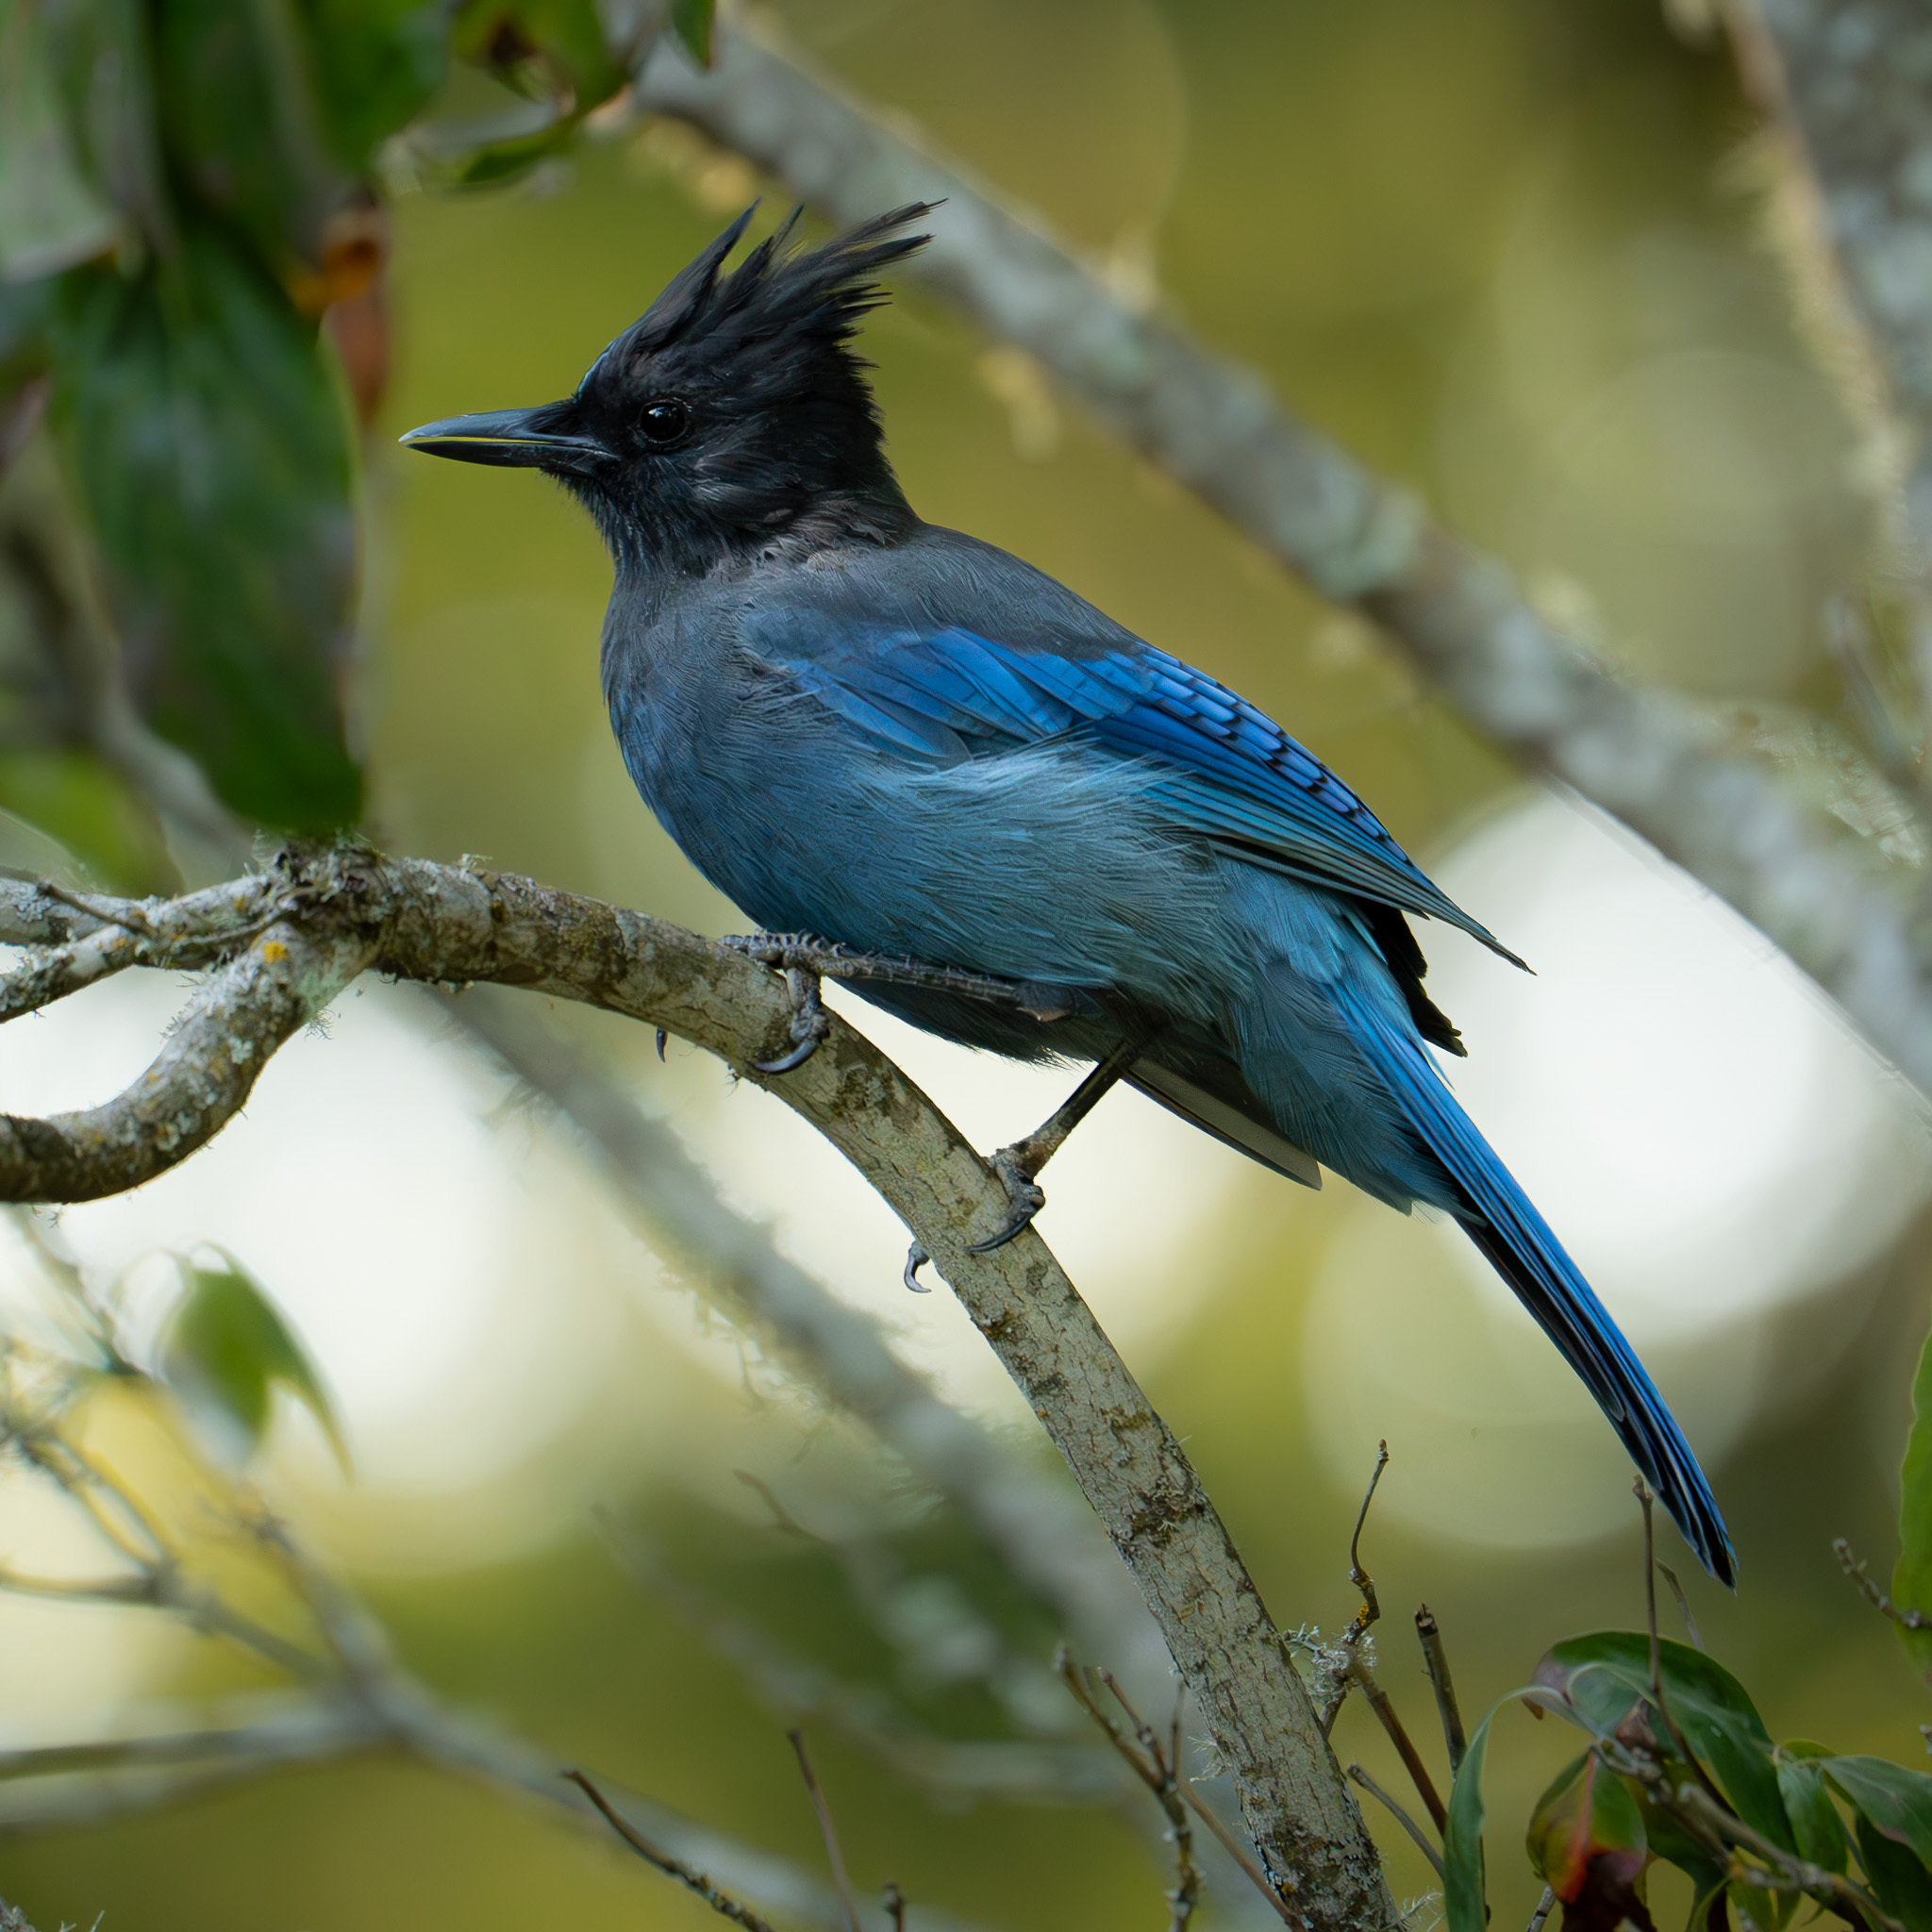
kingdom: Animalia
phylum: Chordata
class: Aves
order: Passeriformes
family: Corvidae
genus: Cyanocitta
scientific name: Cyanocitta stelleri
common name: Steller's jay
